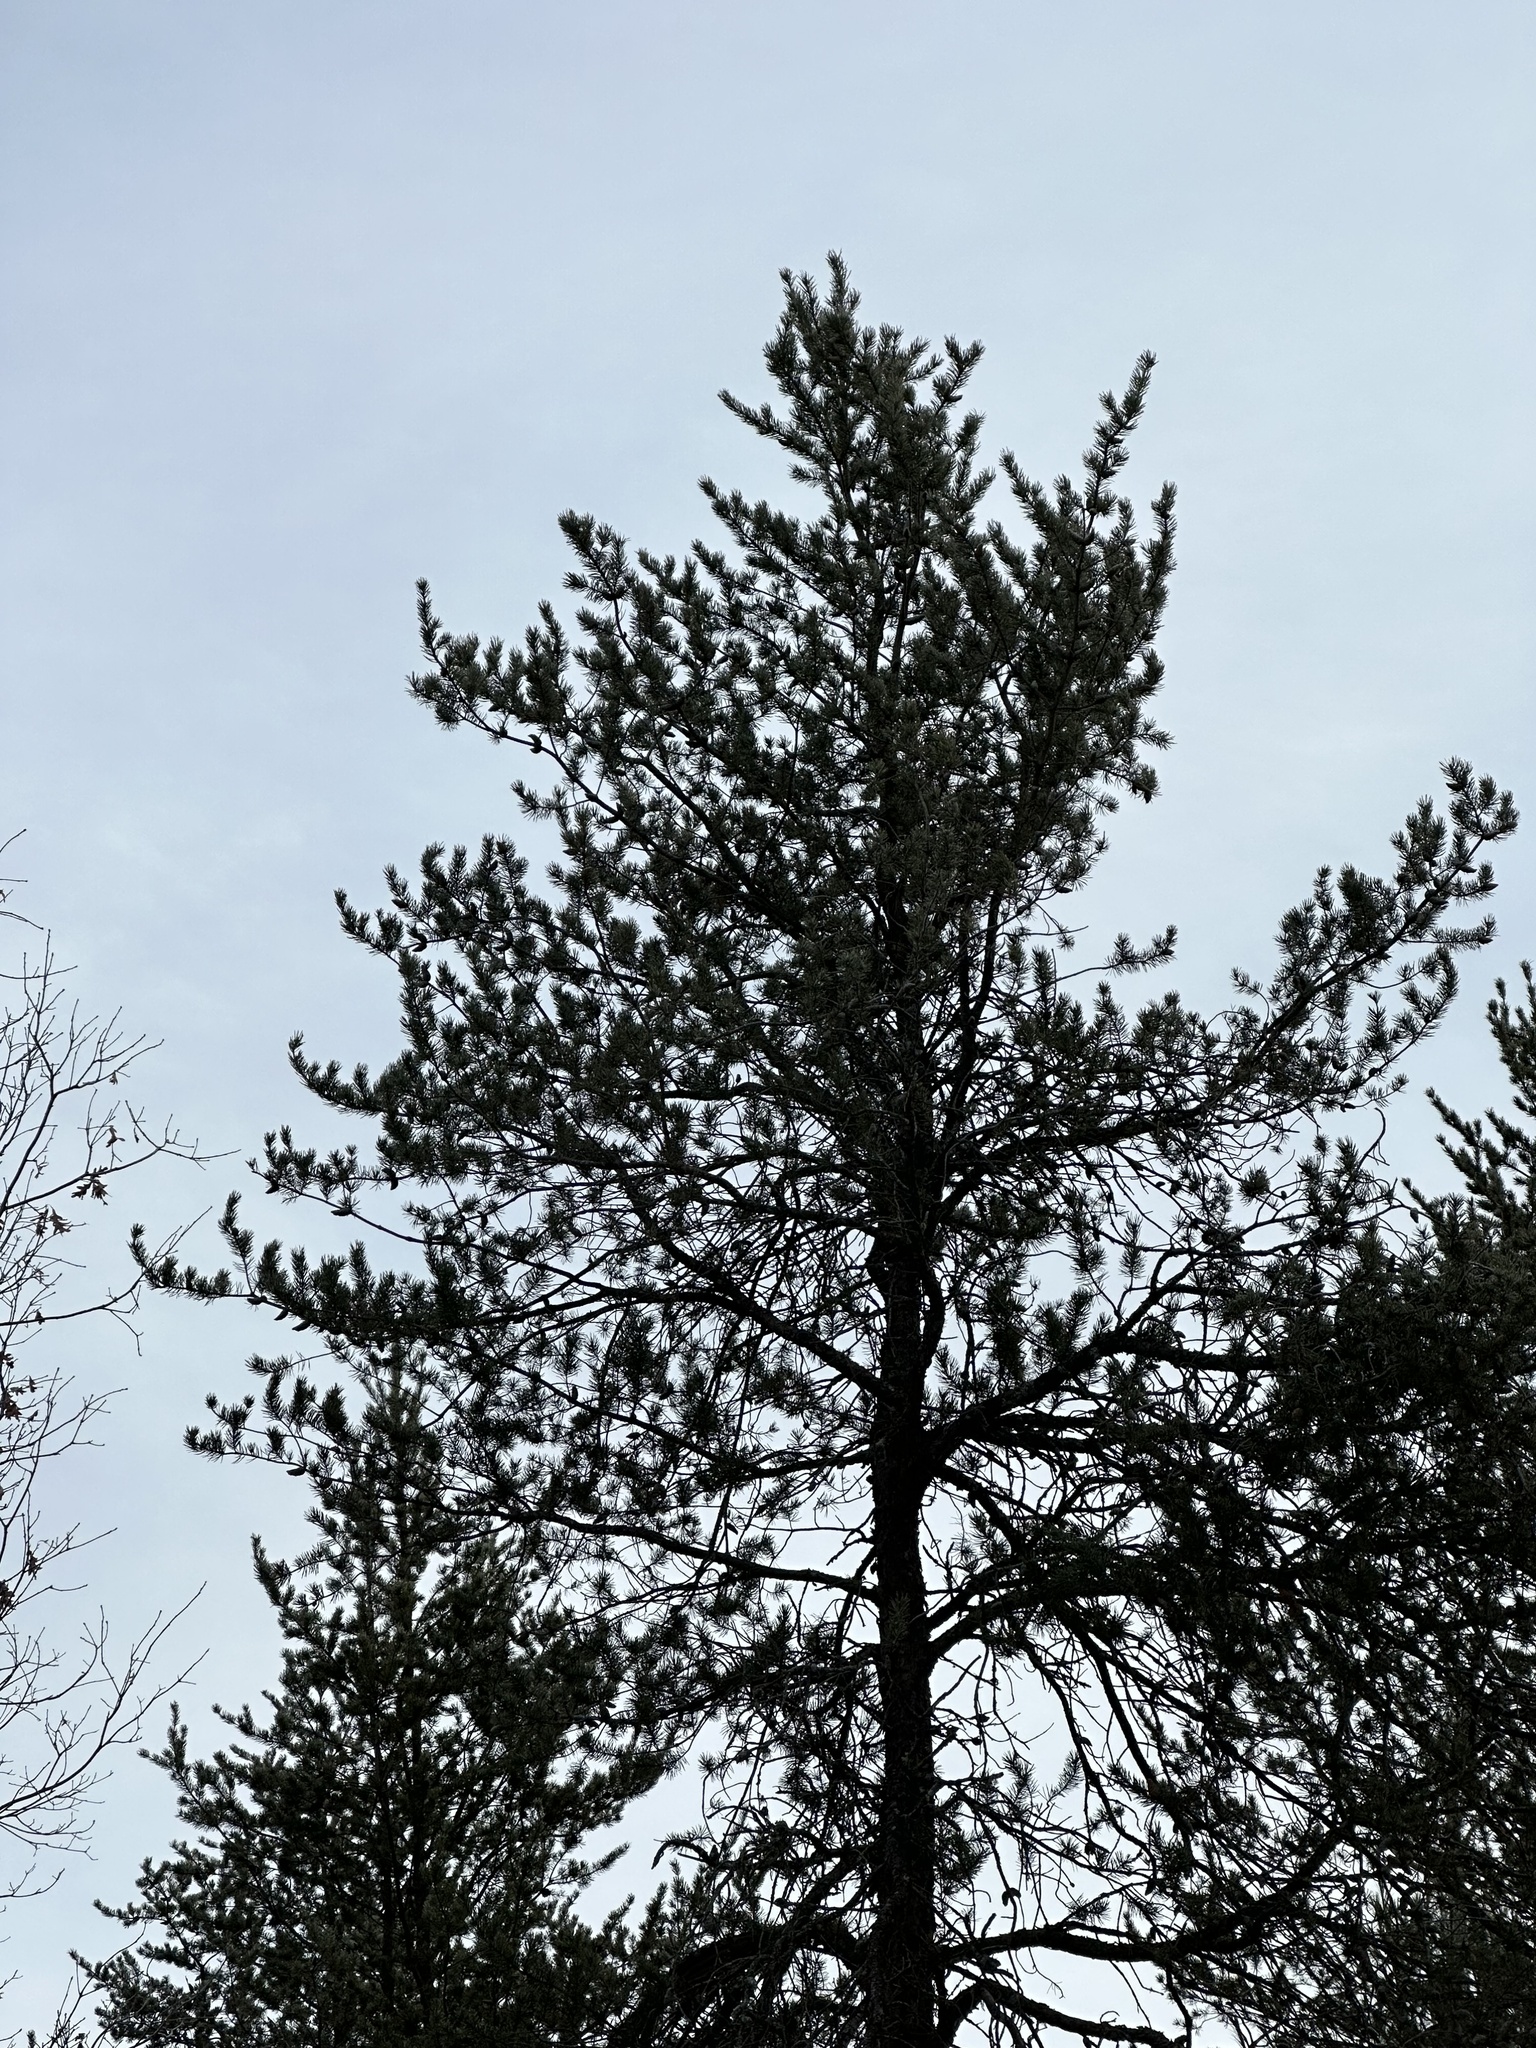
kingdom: Plantae
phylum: Tracheophyta
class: Pinopsida
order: Pinales
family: Pinaceae
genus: Pinus
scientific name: Pinus banksiana
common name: Jack pine
